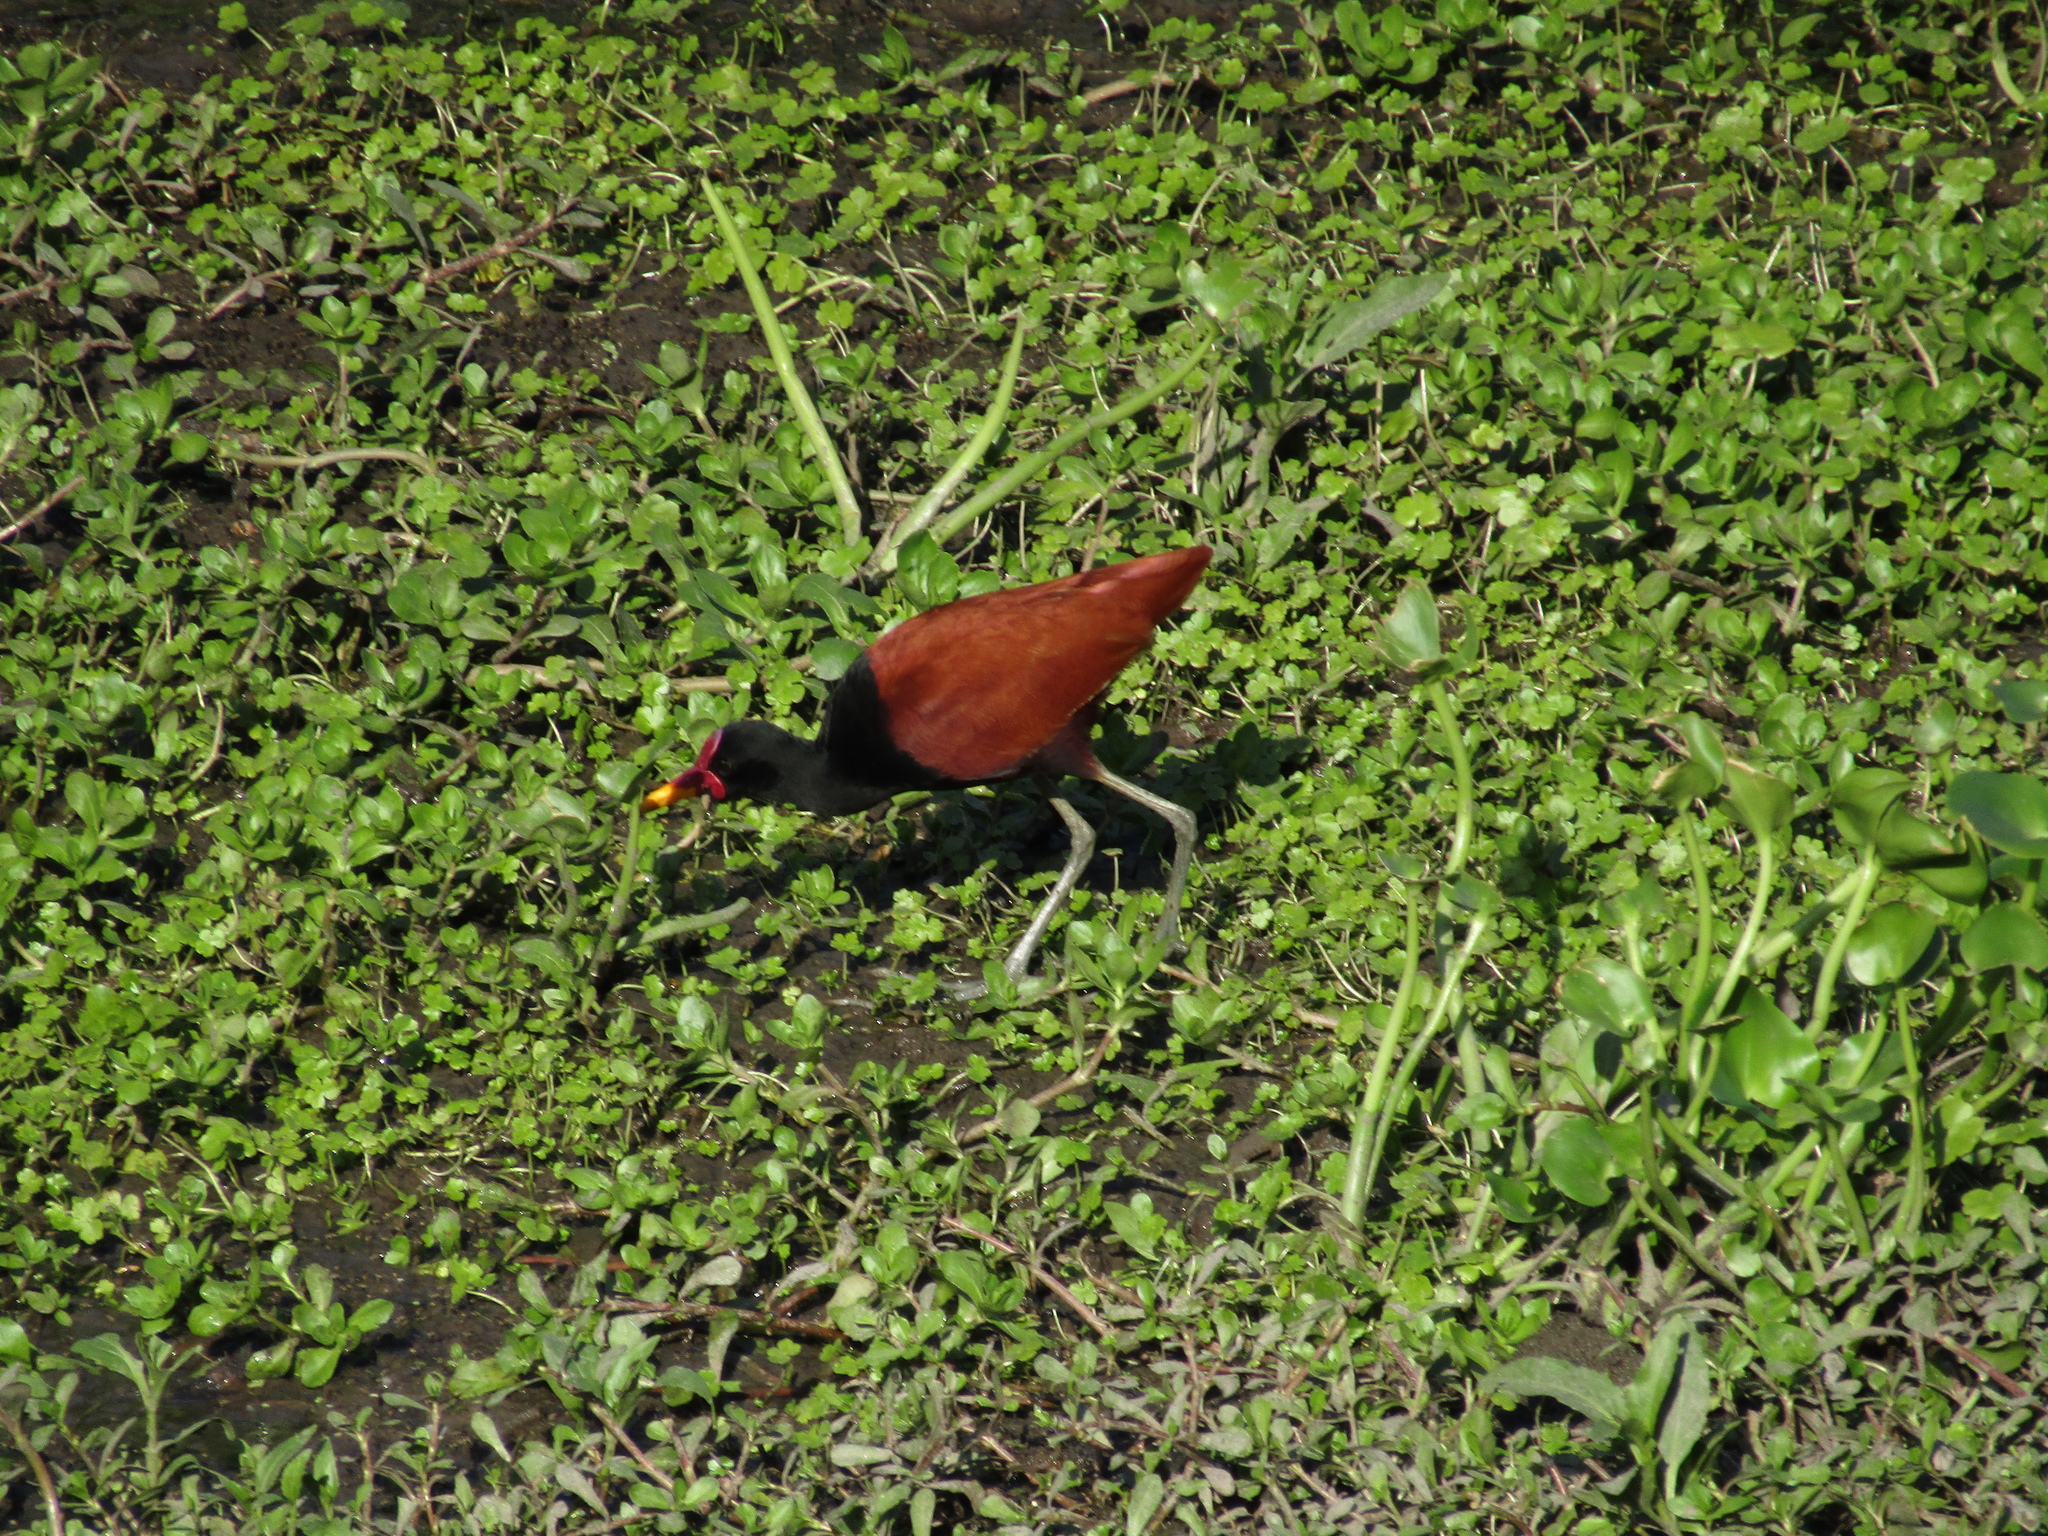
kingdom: Animalia
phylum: Chordata
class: Aves
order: Charadriiformes
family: Jacanidae
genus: Jacana
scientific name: Jacana jacana
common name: Wattled jacana
